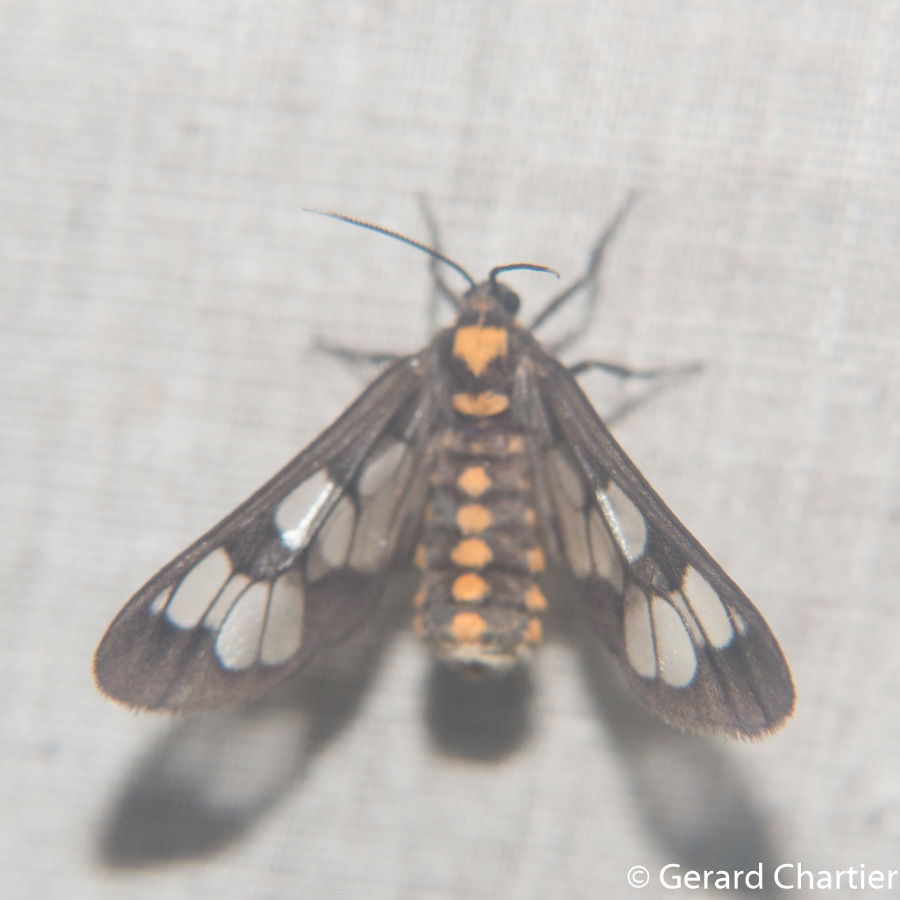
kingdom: Animalia
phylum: Arthropoda
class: Insecta
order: Lepidoptera
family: Erebidae
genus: Eressa
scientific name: Eressa confinis
